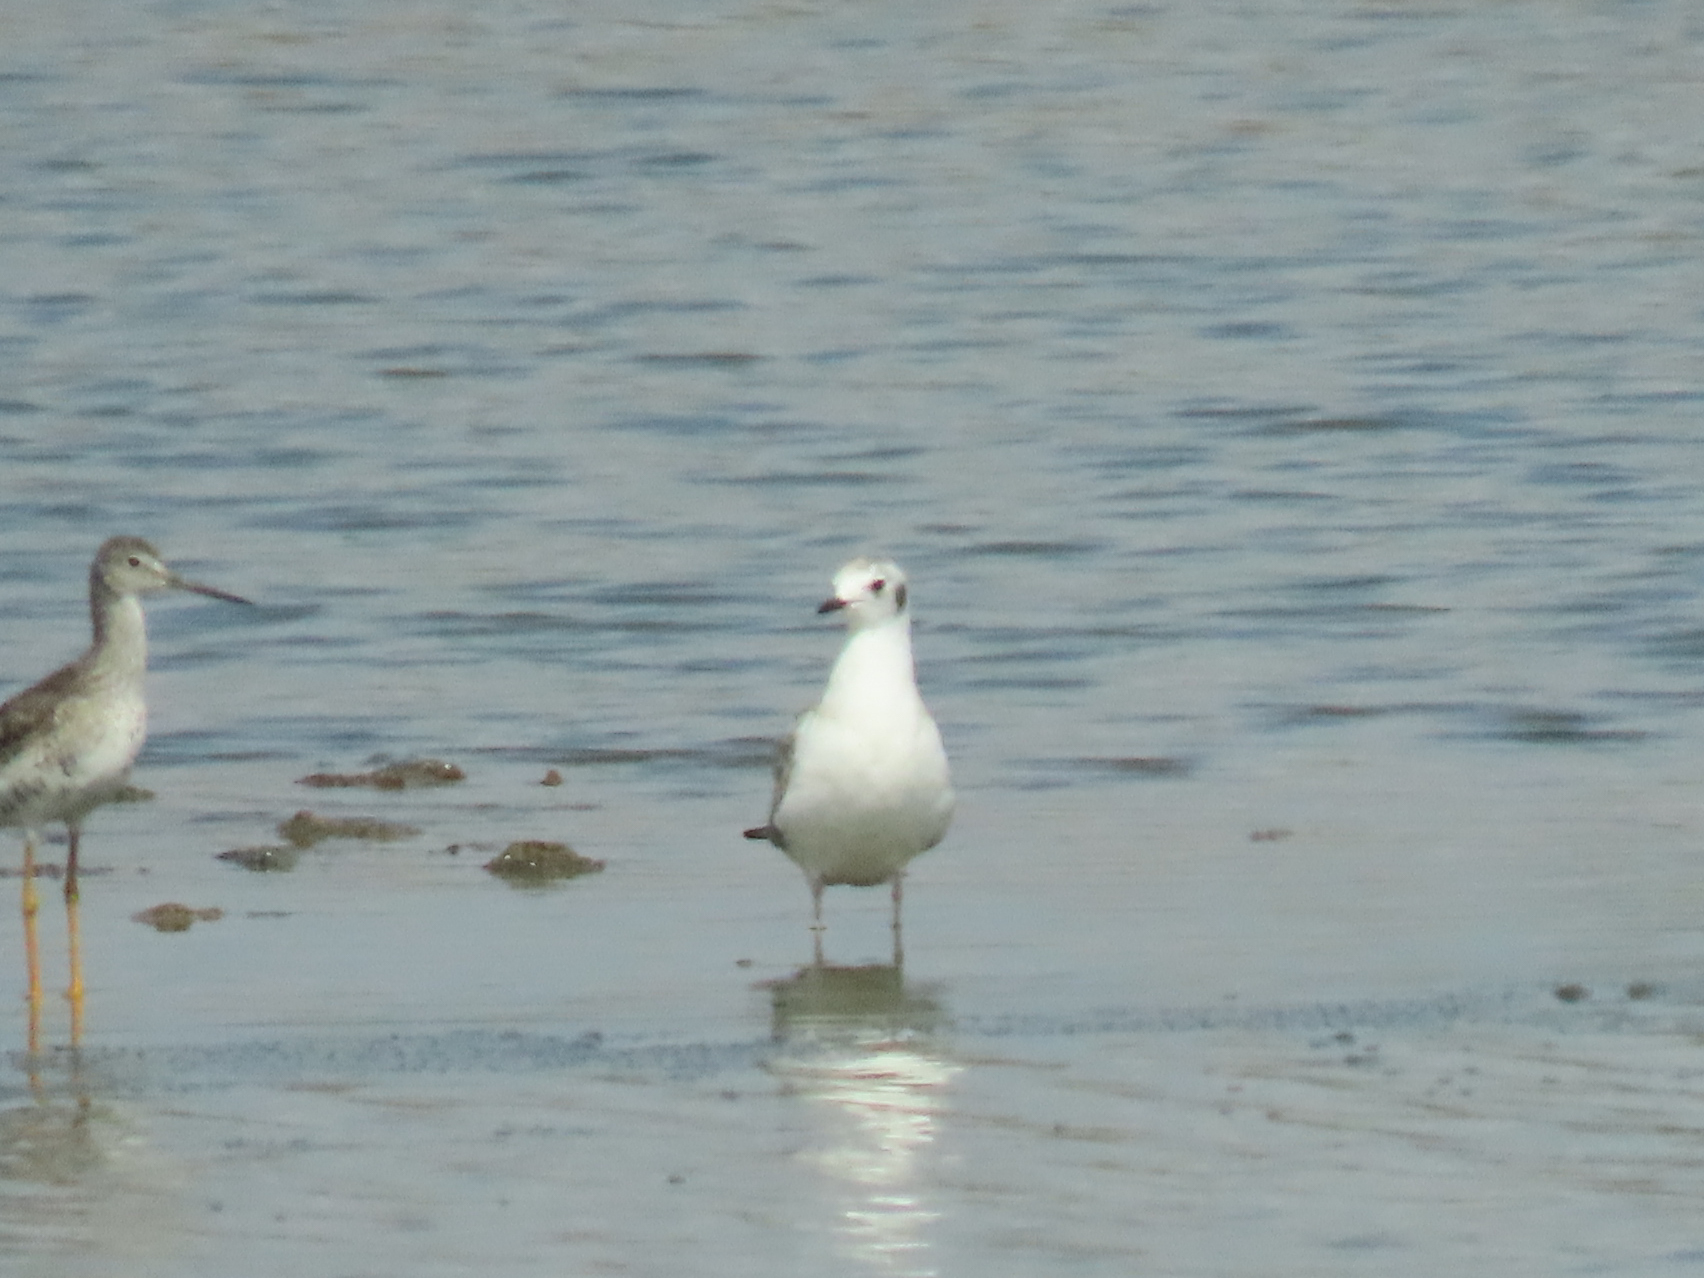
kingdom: Animalia
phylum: Chordata
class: Aves
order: Charadriiformes
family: Laridae
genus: Chroicocephalus
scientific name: Chroicocephalus philadelphia
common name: Bonaparte's gull
